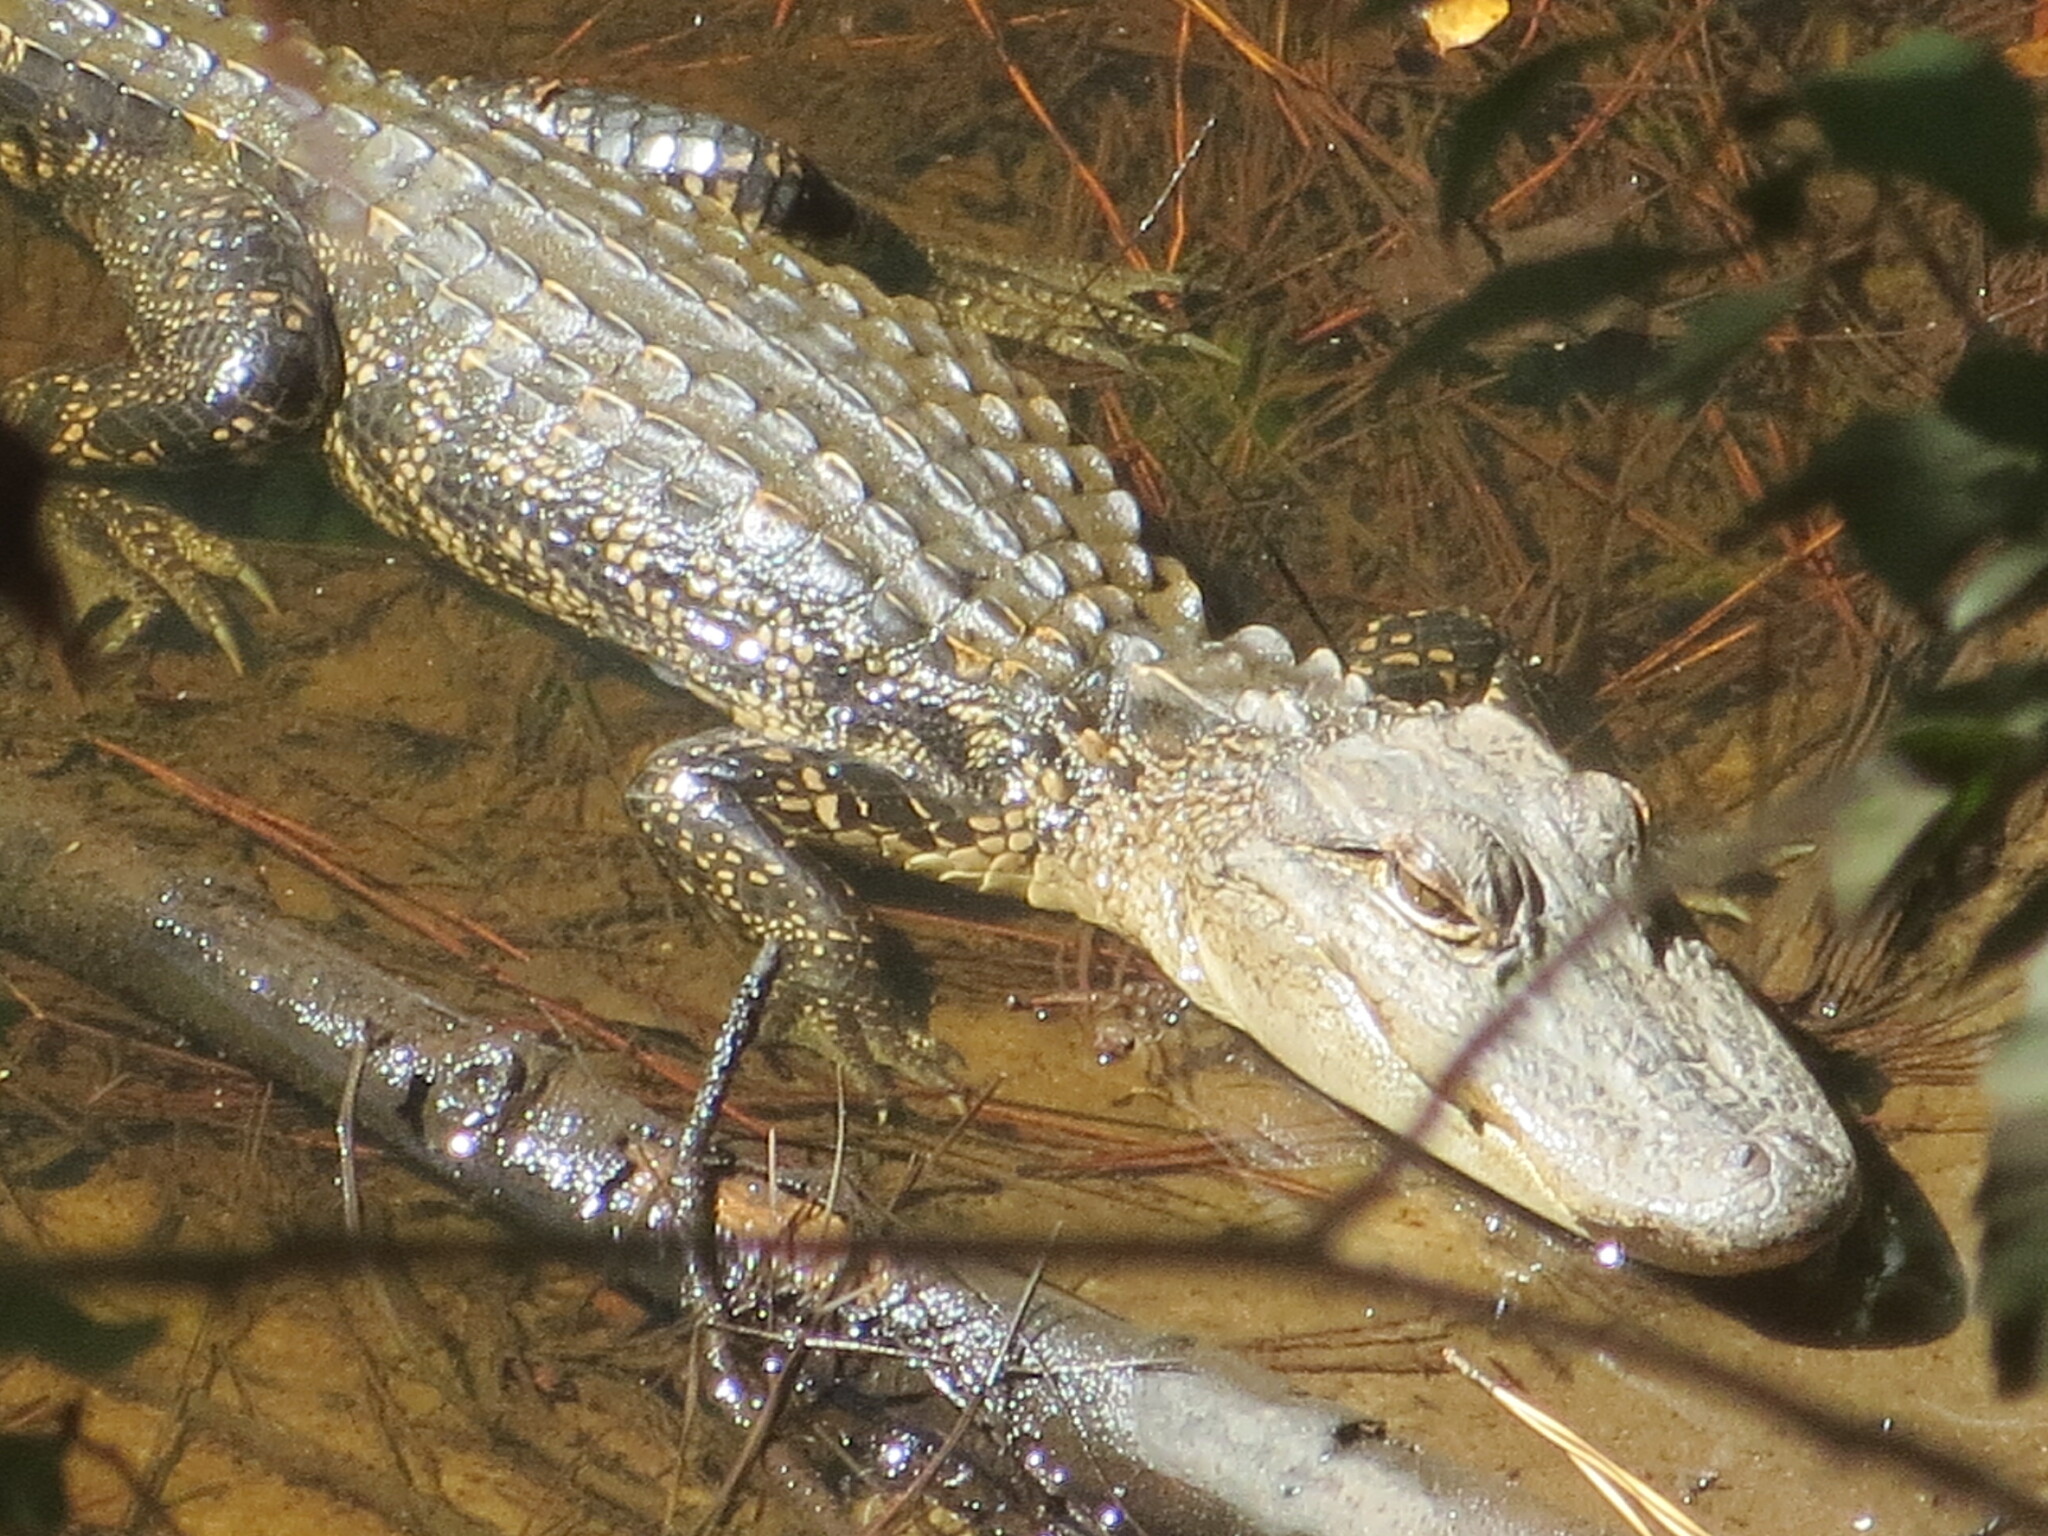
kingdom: Animalia
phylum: Chordata
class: Crocodylia
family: Alligatoridae
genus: Alligator
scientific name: Alligator mississippiensis
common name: American alligator
